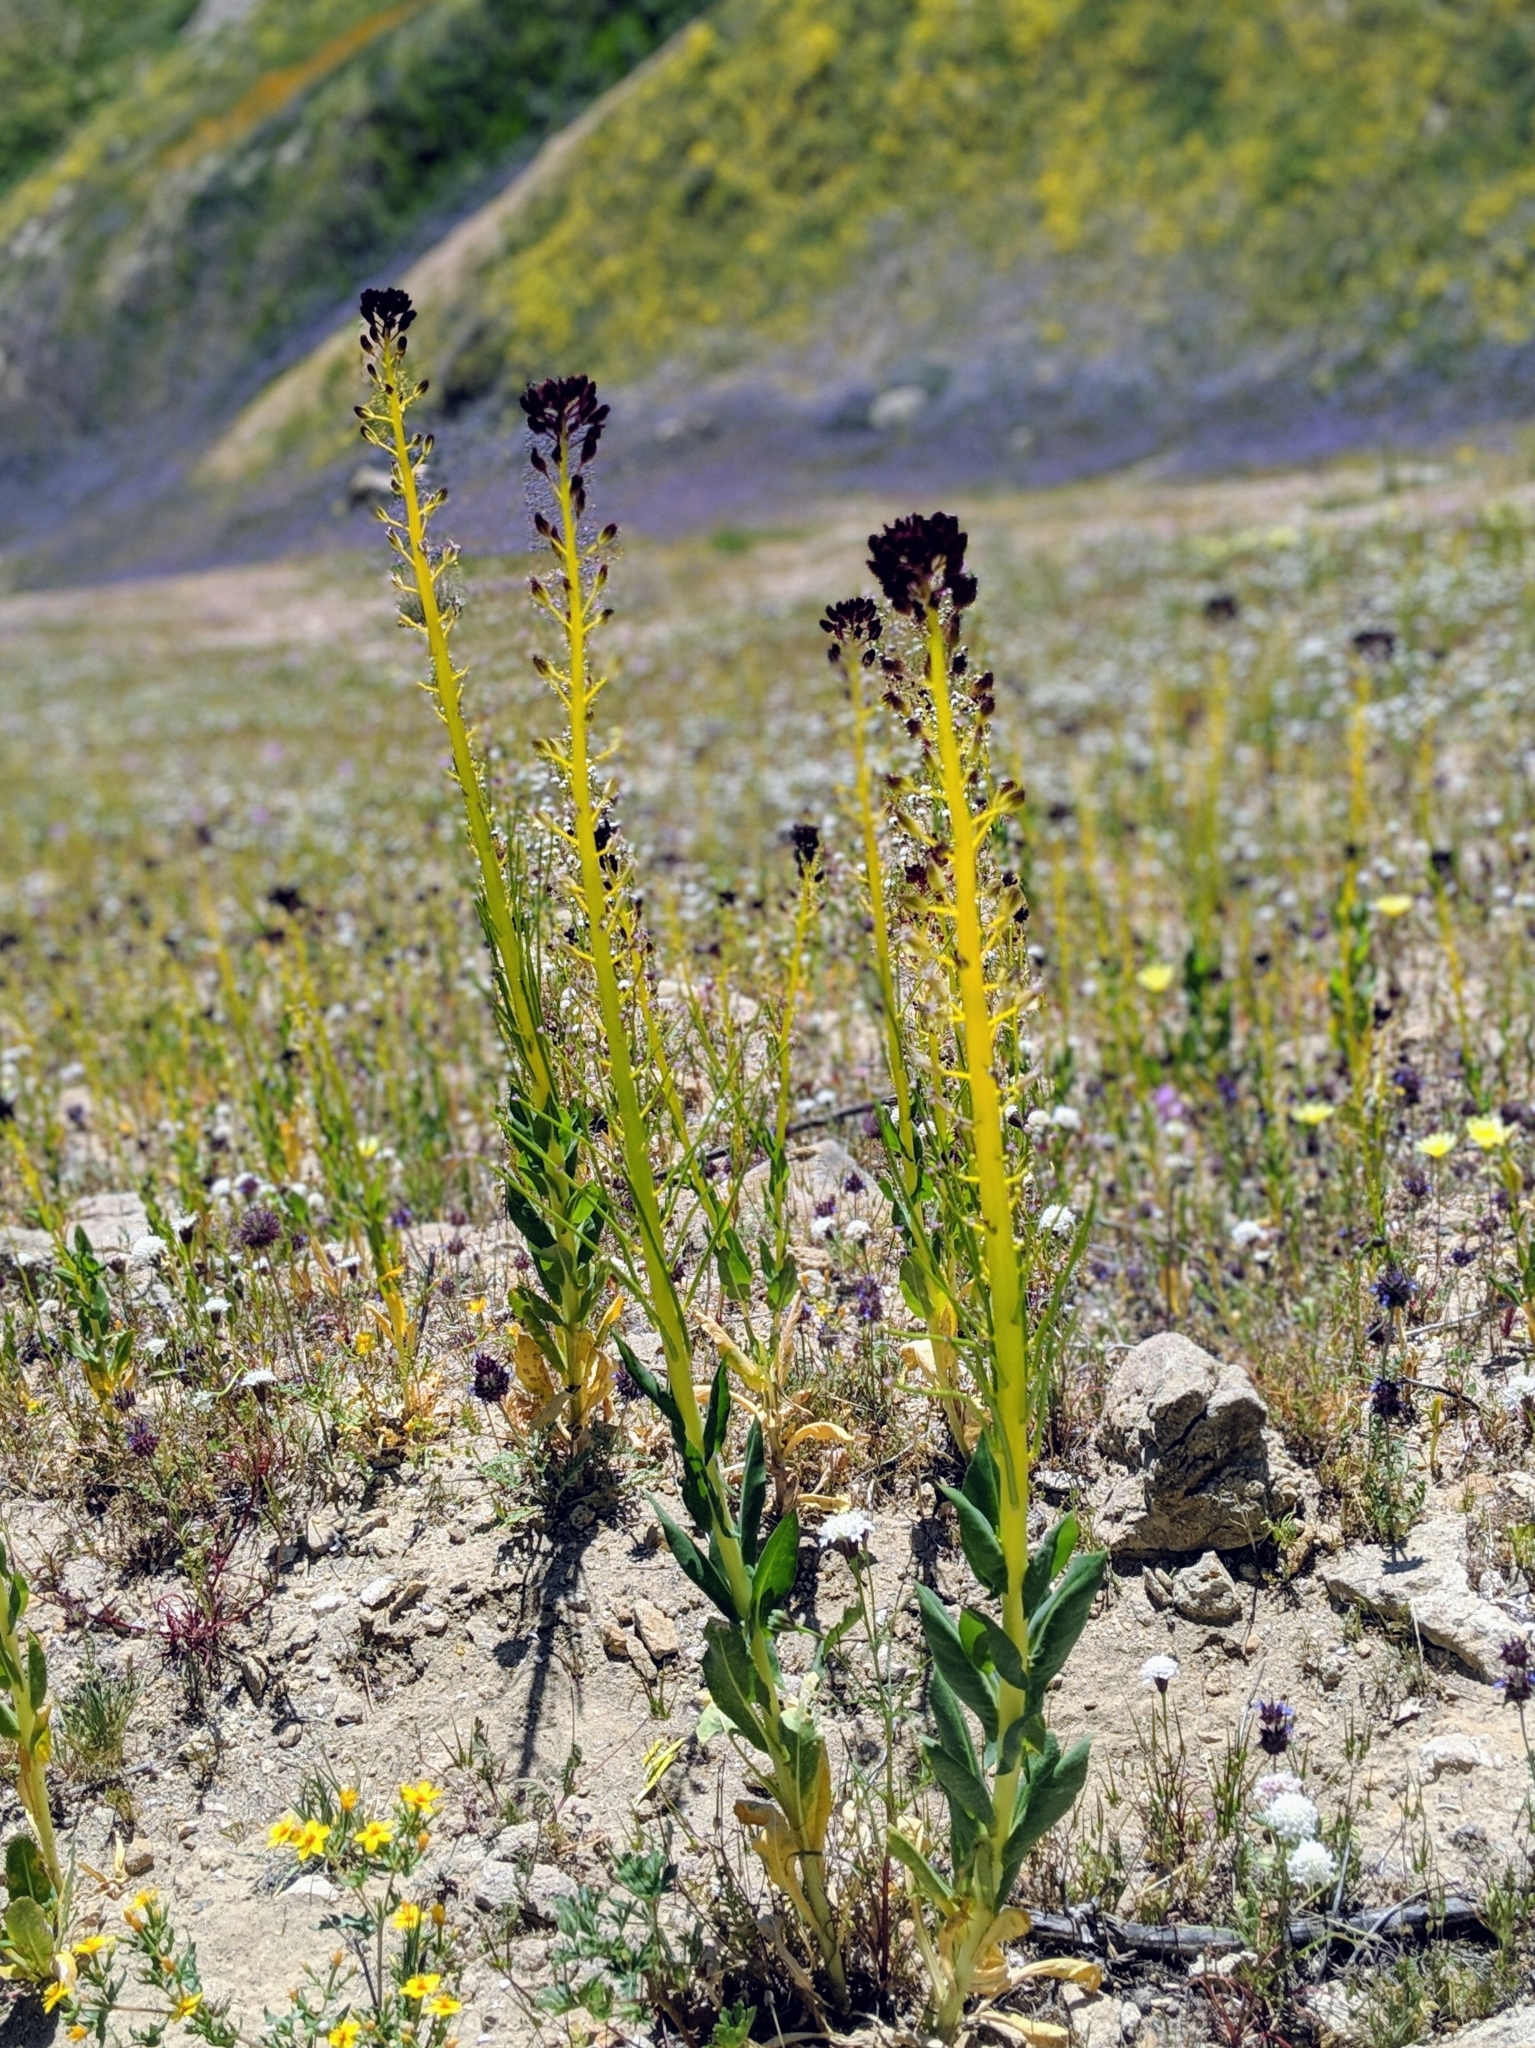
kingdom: Plantae
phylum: Tracheophyta
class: Magnoliopsida
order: Brassicales
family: Brassicaceae
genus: Streptanthus
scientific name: Streptanthus inflatus
